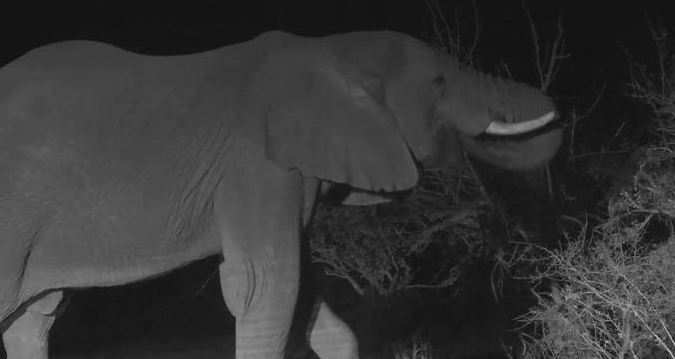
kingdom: Animalia
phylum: Chordata
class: Mammalia
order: Proboscidea
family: Elephantidae
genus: Loxodonta
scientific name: Loxodonta africana
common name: African elephant
